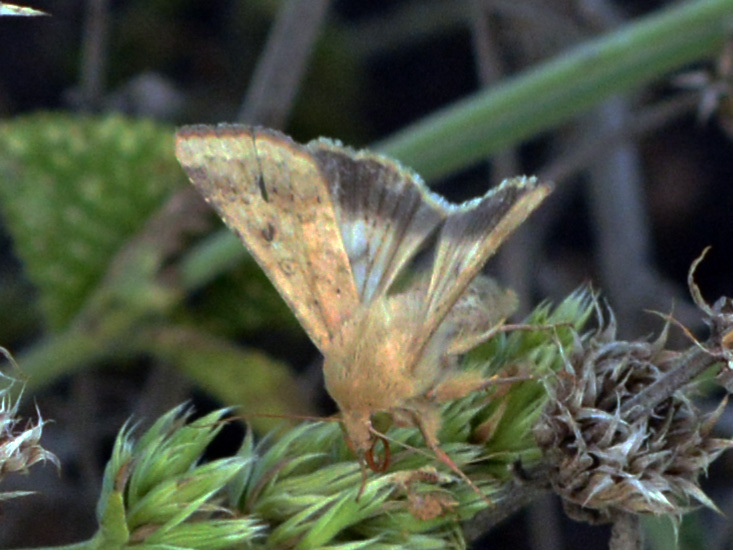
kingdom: Animalia
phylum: Arthropoda
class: Insecta
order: Lepidoptera
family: Noctuidae
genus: Helicoverpa
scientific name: Helicoverpa armigera
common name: Cotton bollworm
